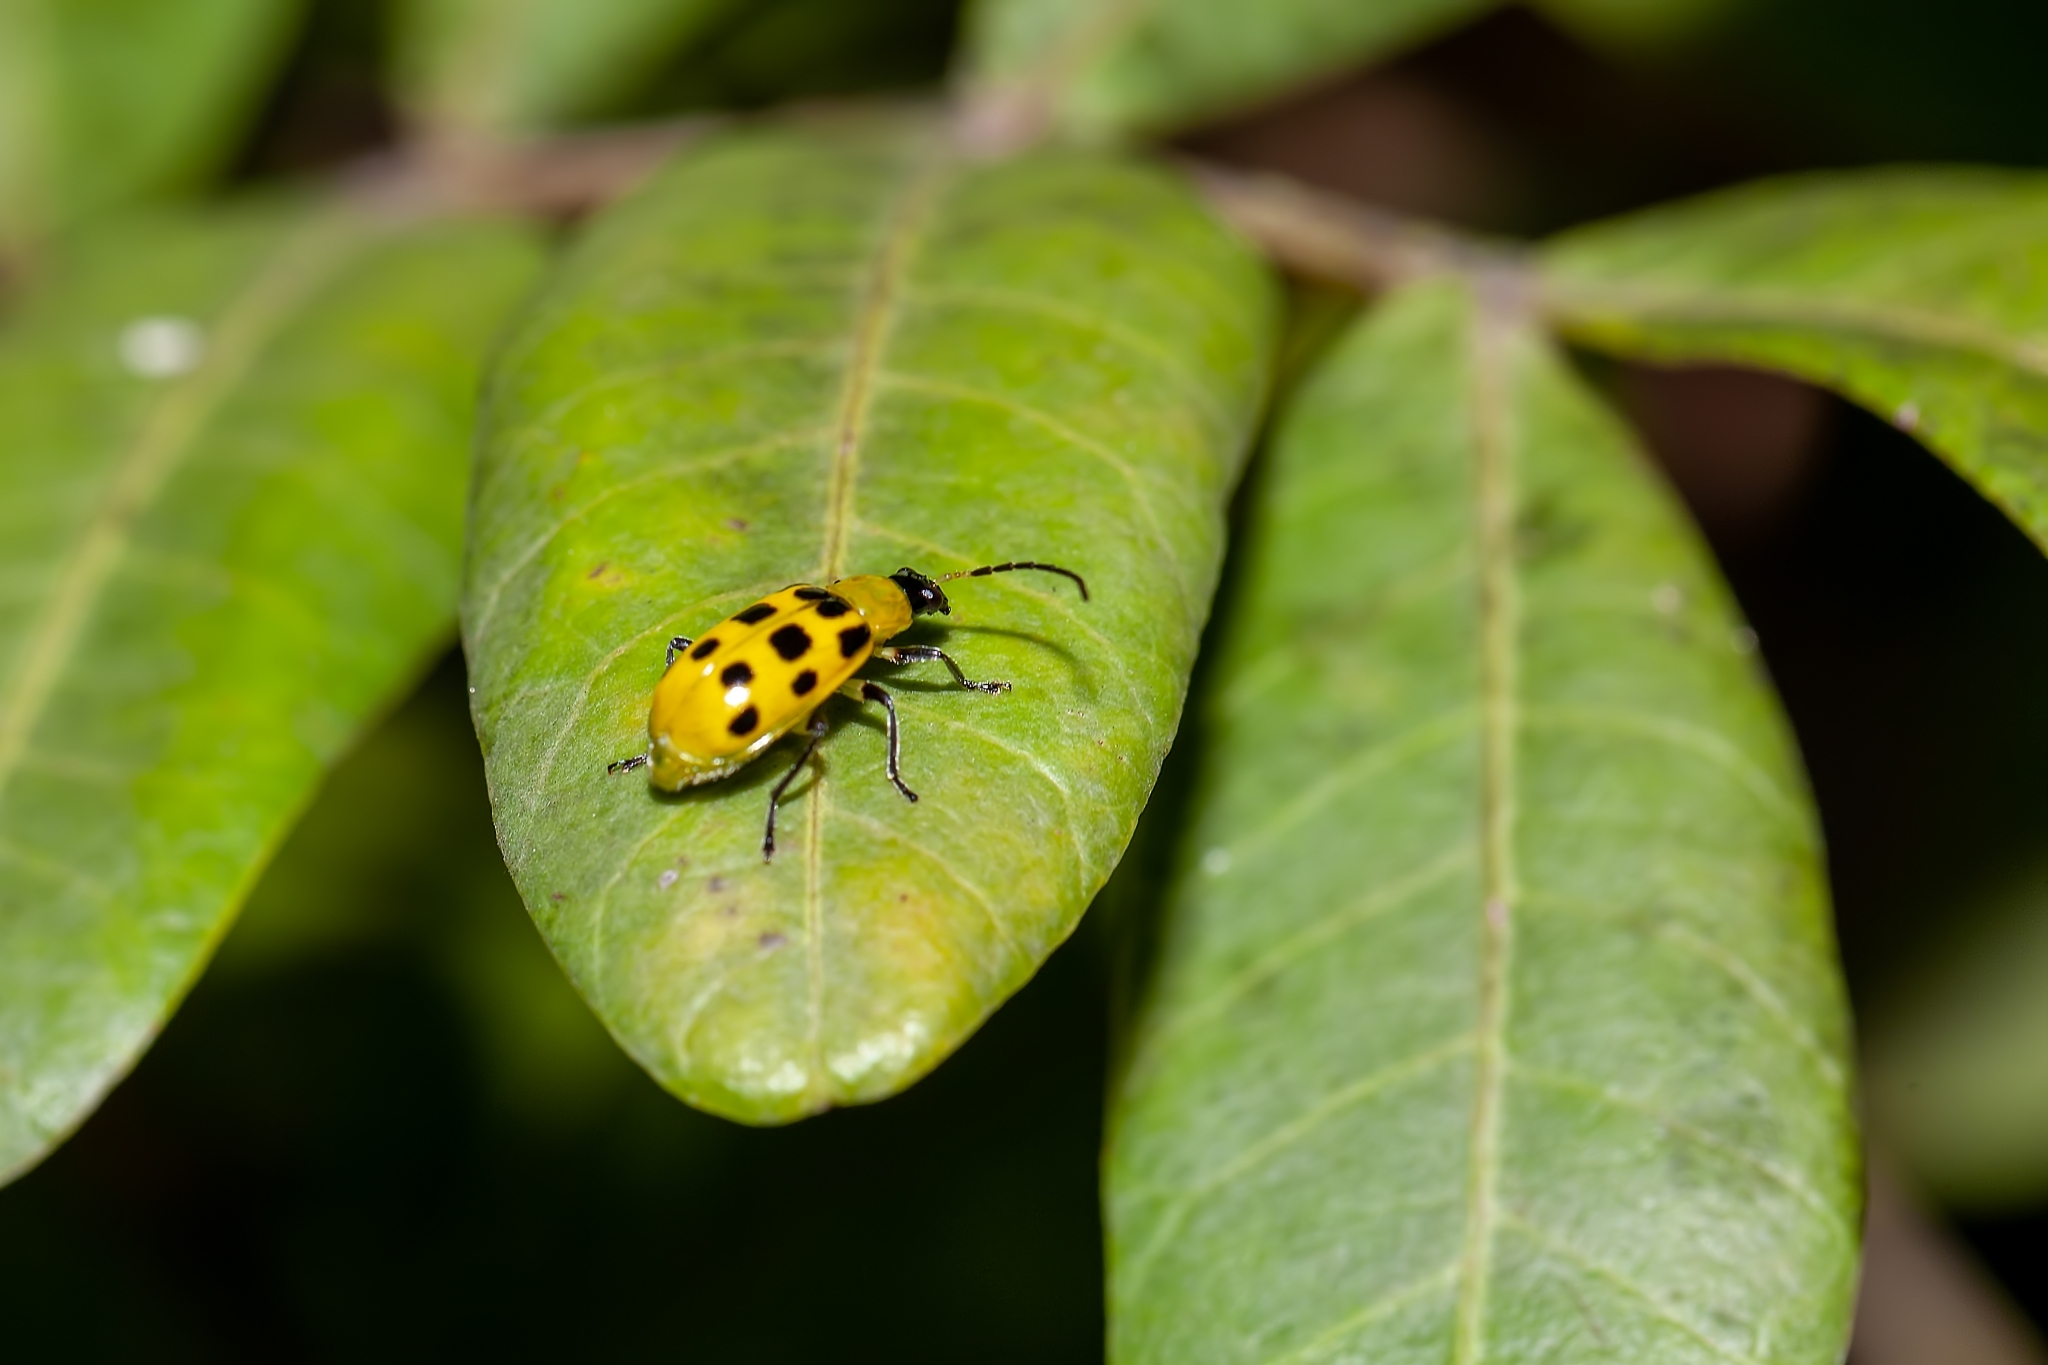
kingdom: Animalia
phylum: Arthropoda
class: Insecta
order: Coleoptera
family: Chrysomelidae
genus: Diabrotica
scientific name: Diabrotica undecimpunctata
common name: Spotted cucumber beetle
